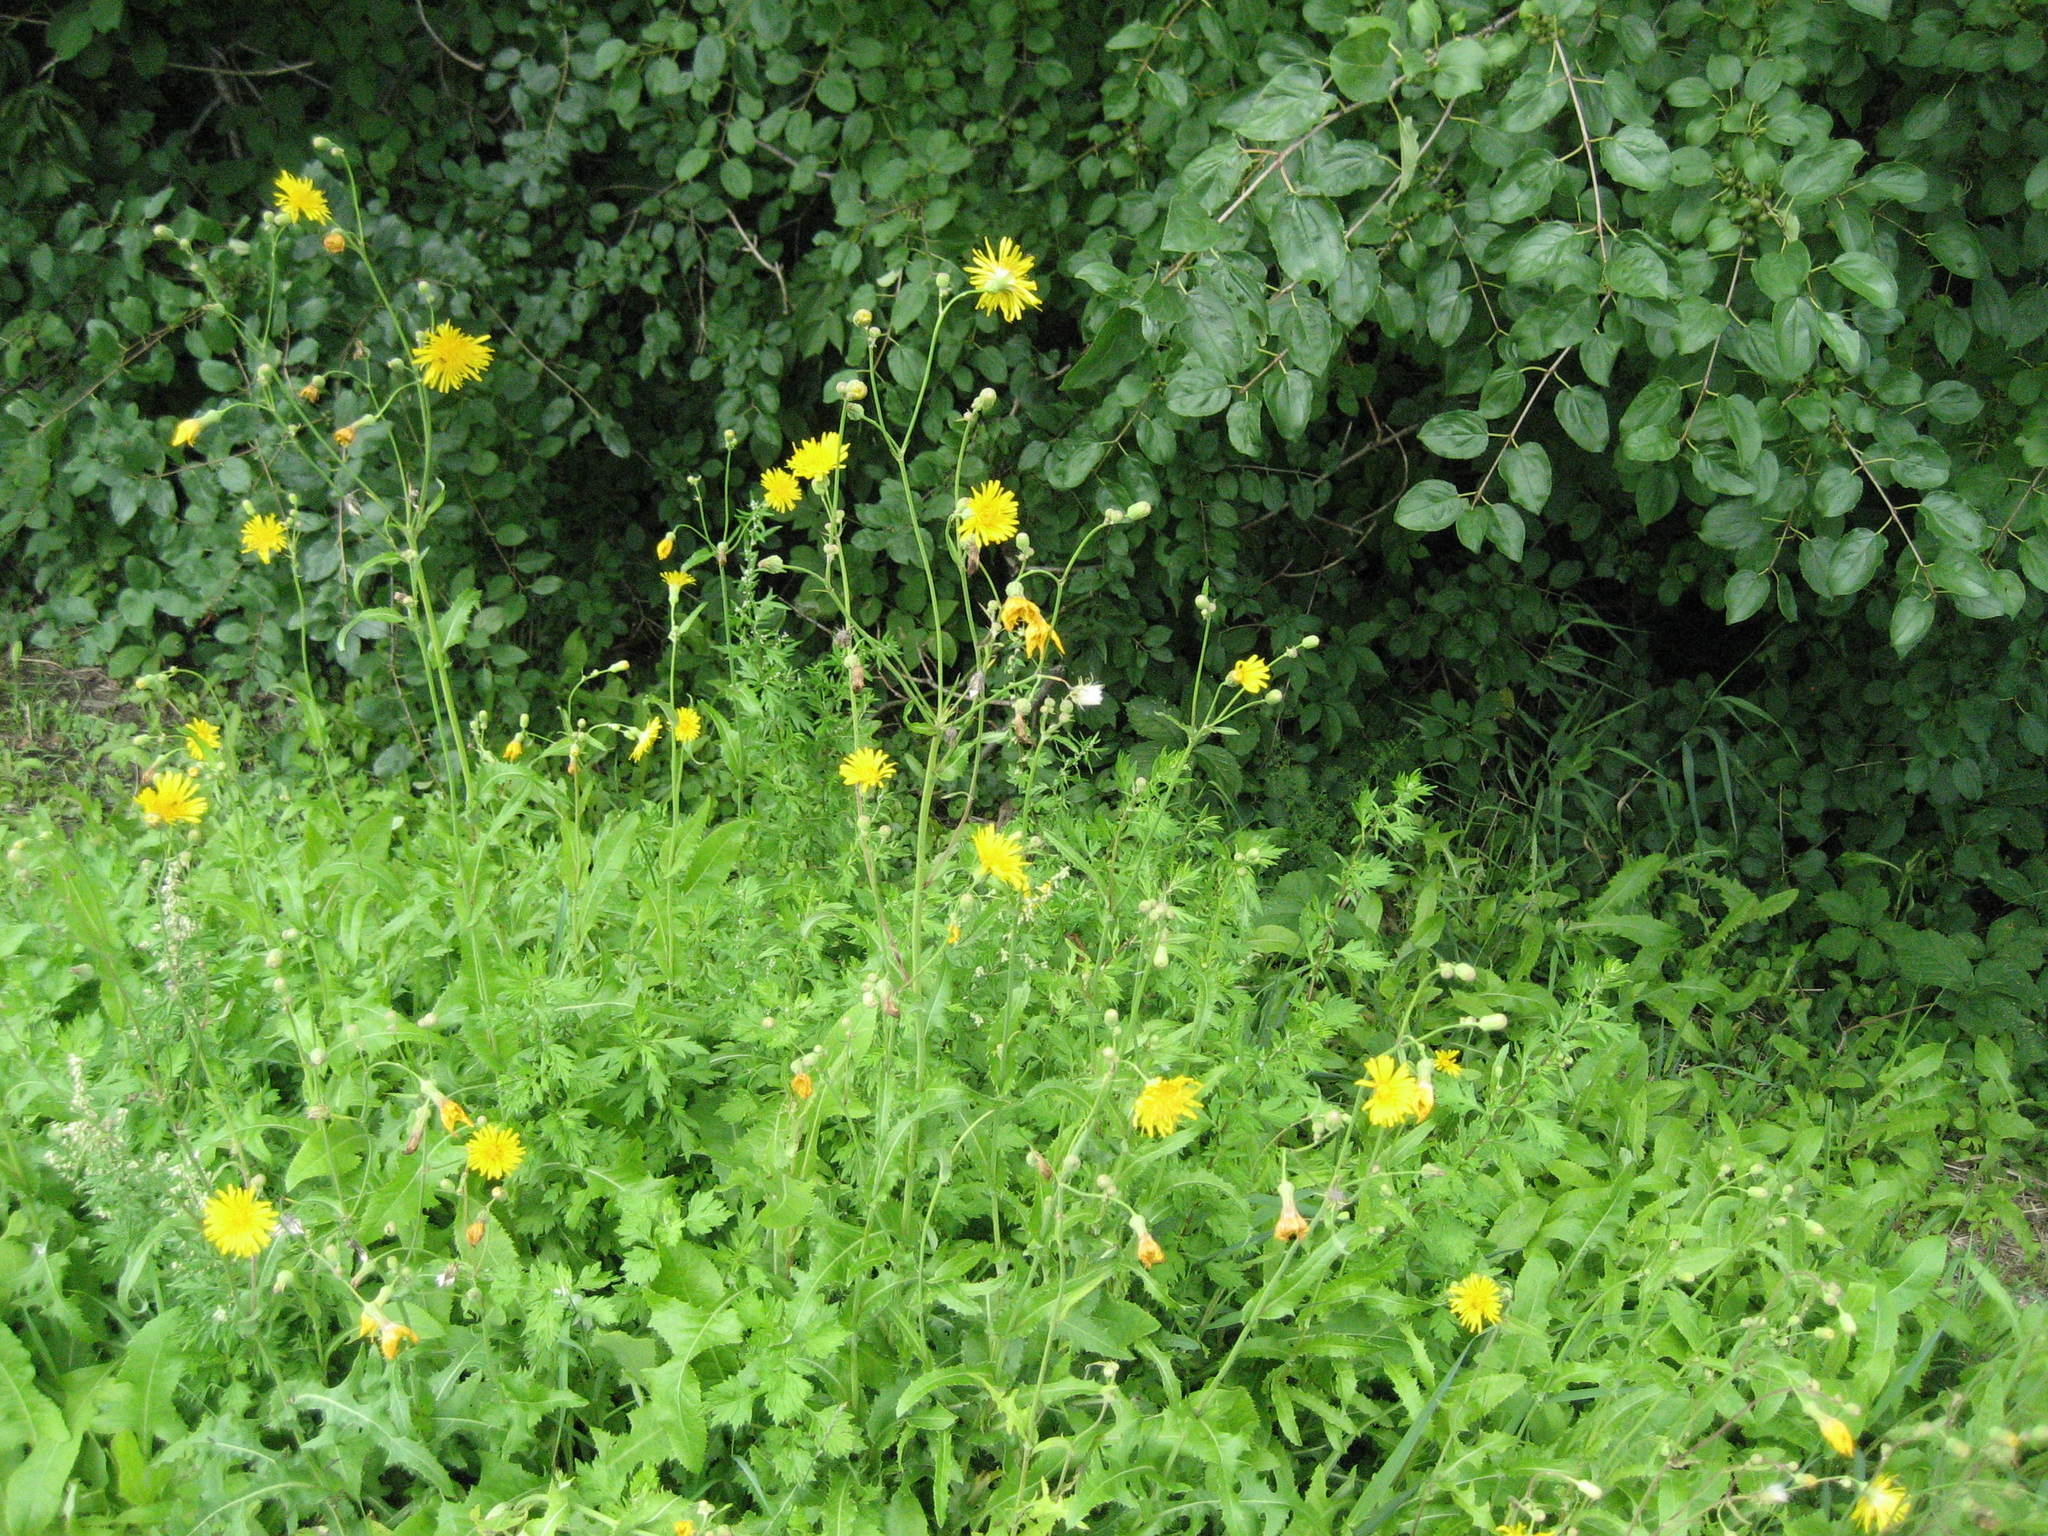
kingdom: Plantae
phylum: Tracheophyta
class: Magnoliopsida
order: Asterales
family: Asteraceae
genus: Sonchus
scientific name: Sonchus arvensis
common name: Perennial sow-thistle
